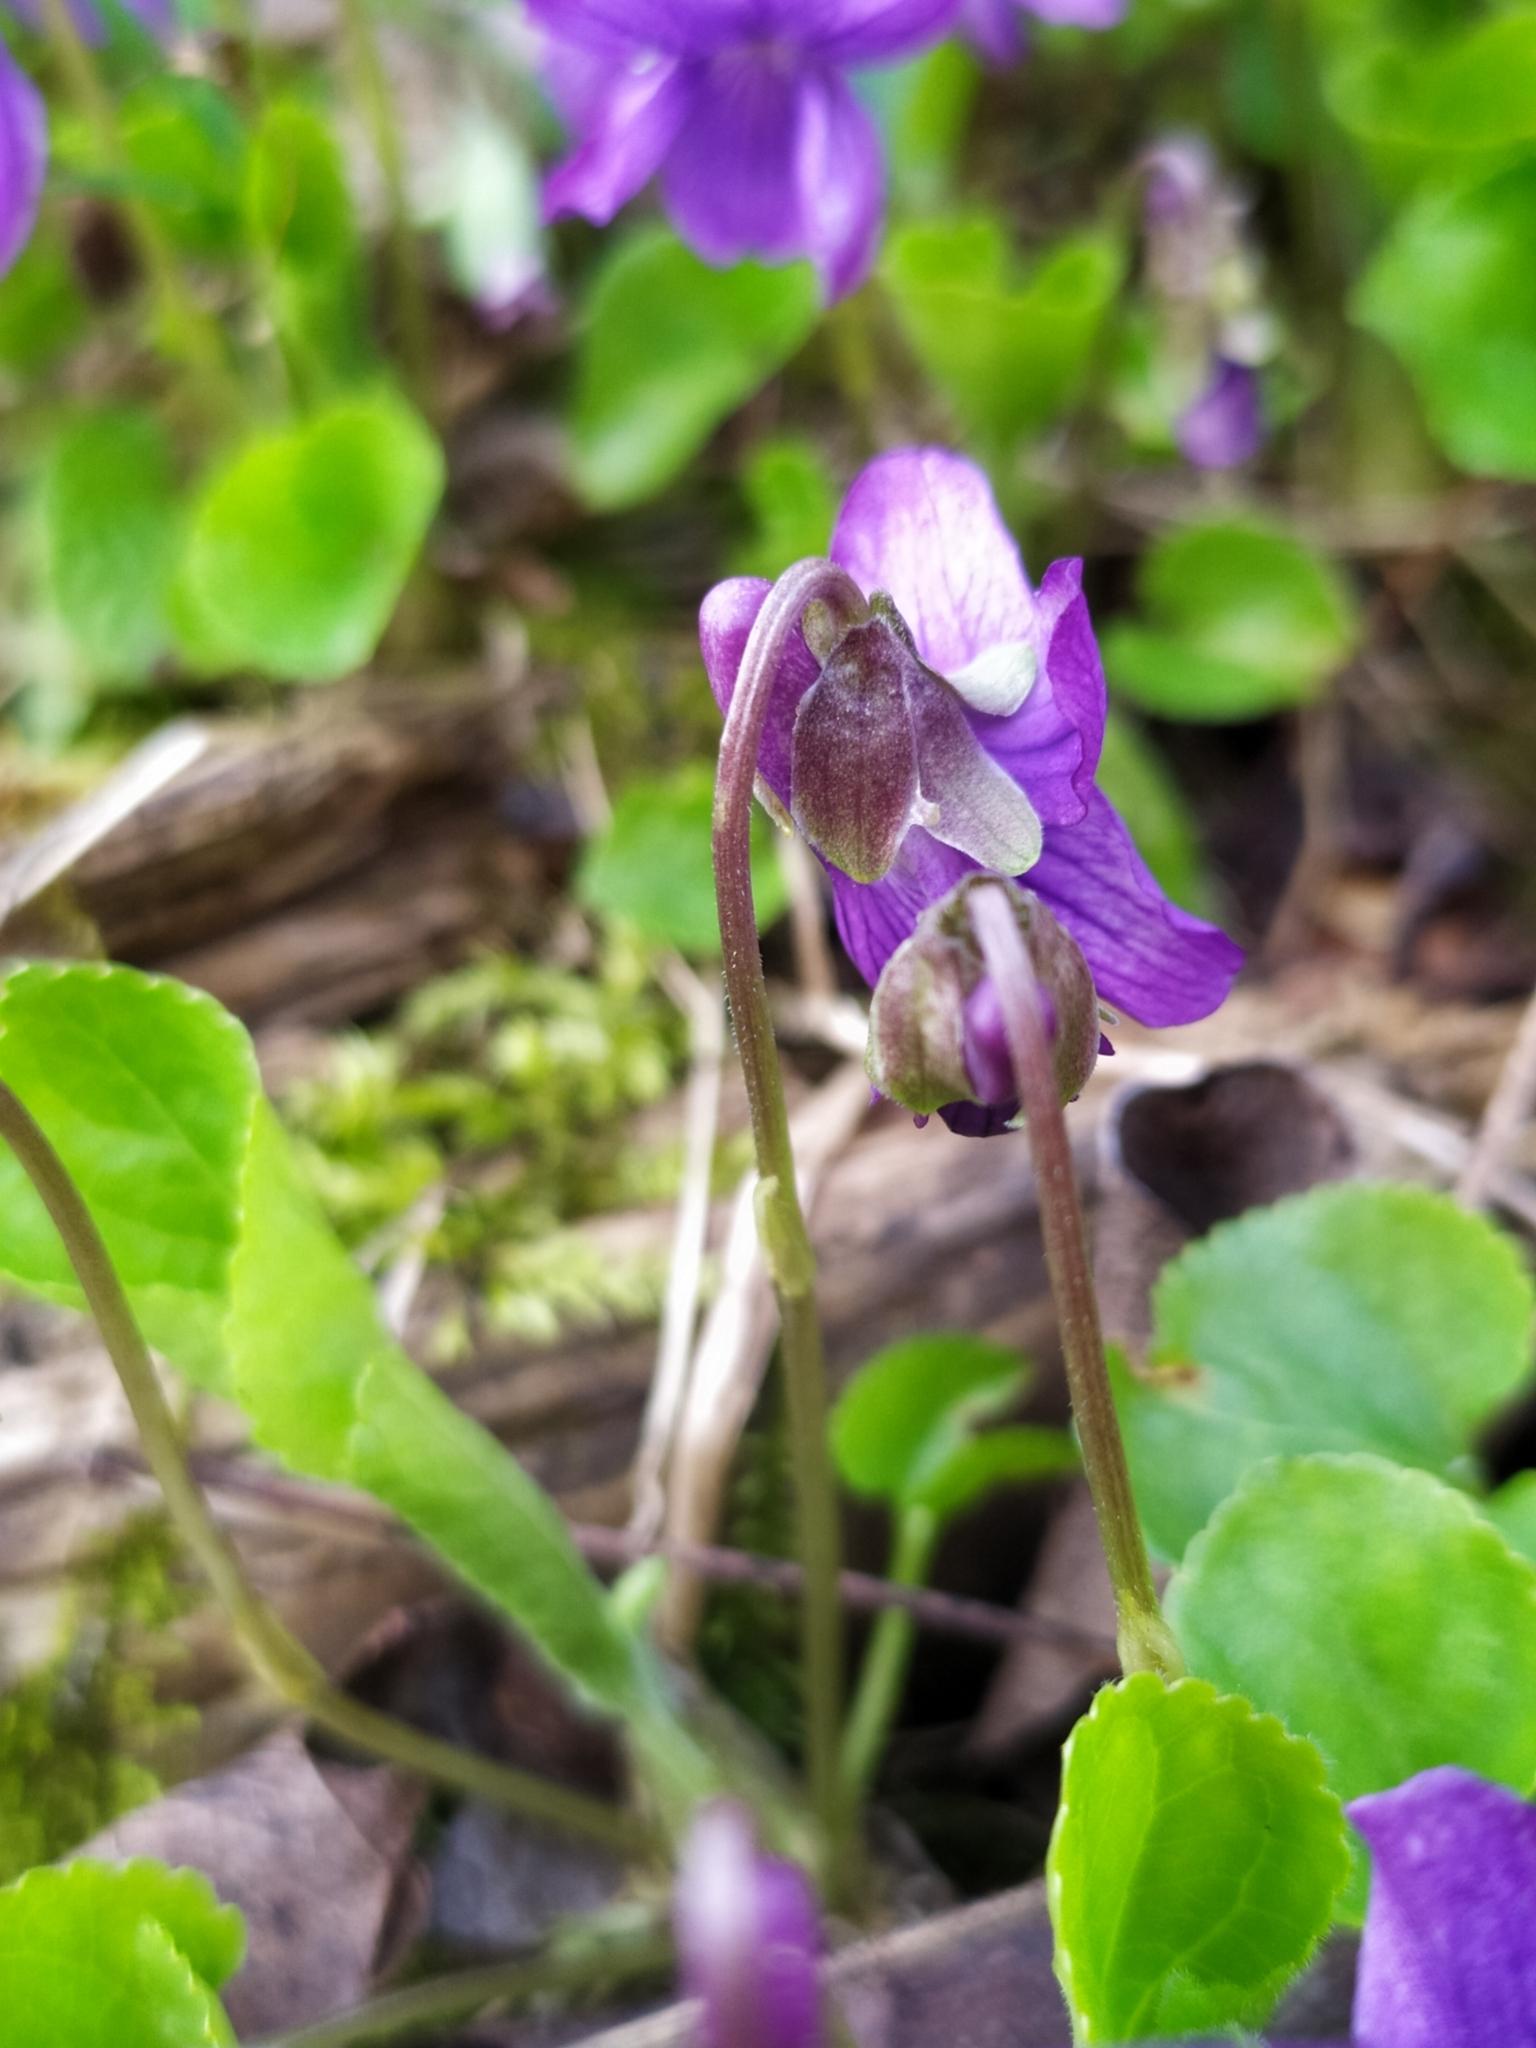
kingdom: Plantae
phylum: Tracheophyta
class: Magnoliopsida
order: Malpighiales
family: Violaceae
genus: Viola
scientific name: Viola odorata
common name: Sweet violet
